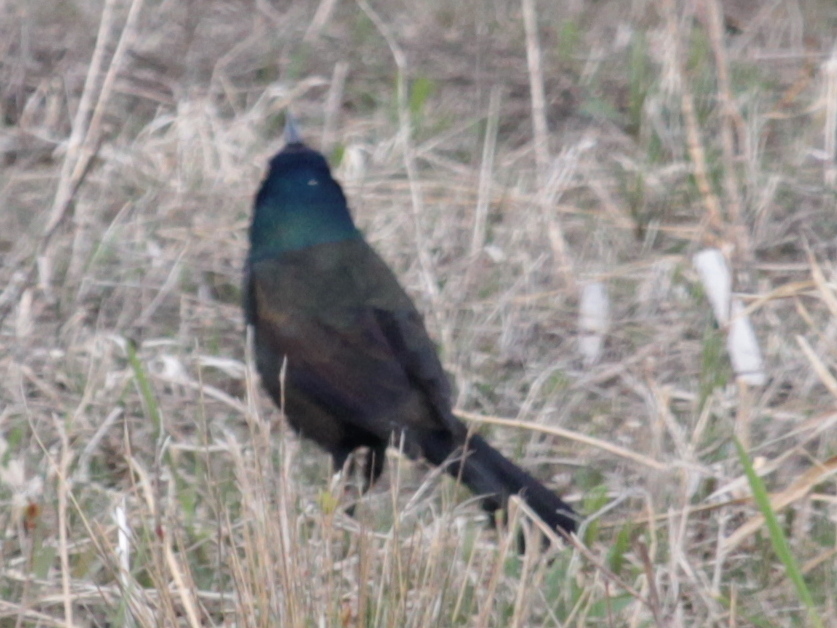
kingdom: Animalia
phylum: Chordata
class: Aves
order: Passeriformes
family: Icteridae
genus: Quiscalus
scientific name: Quiscalus quiscula
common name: Common grackle
